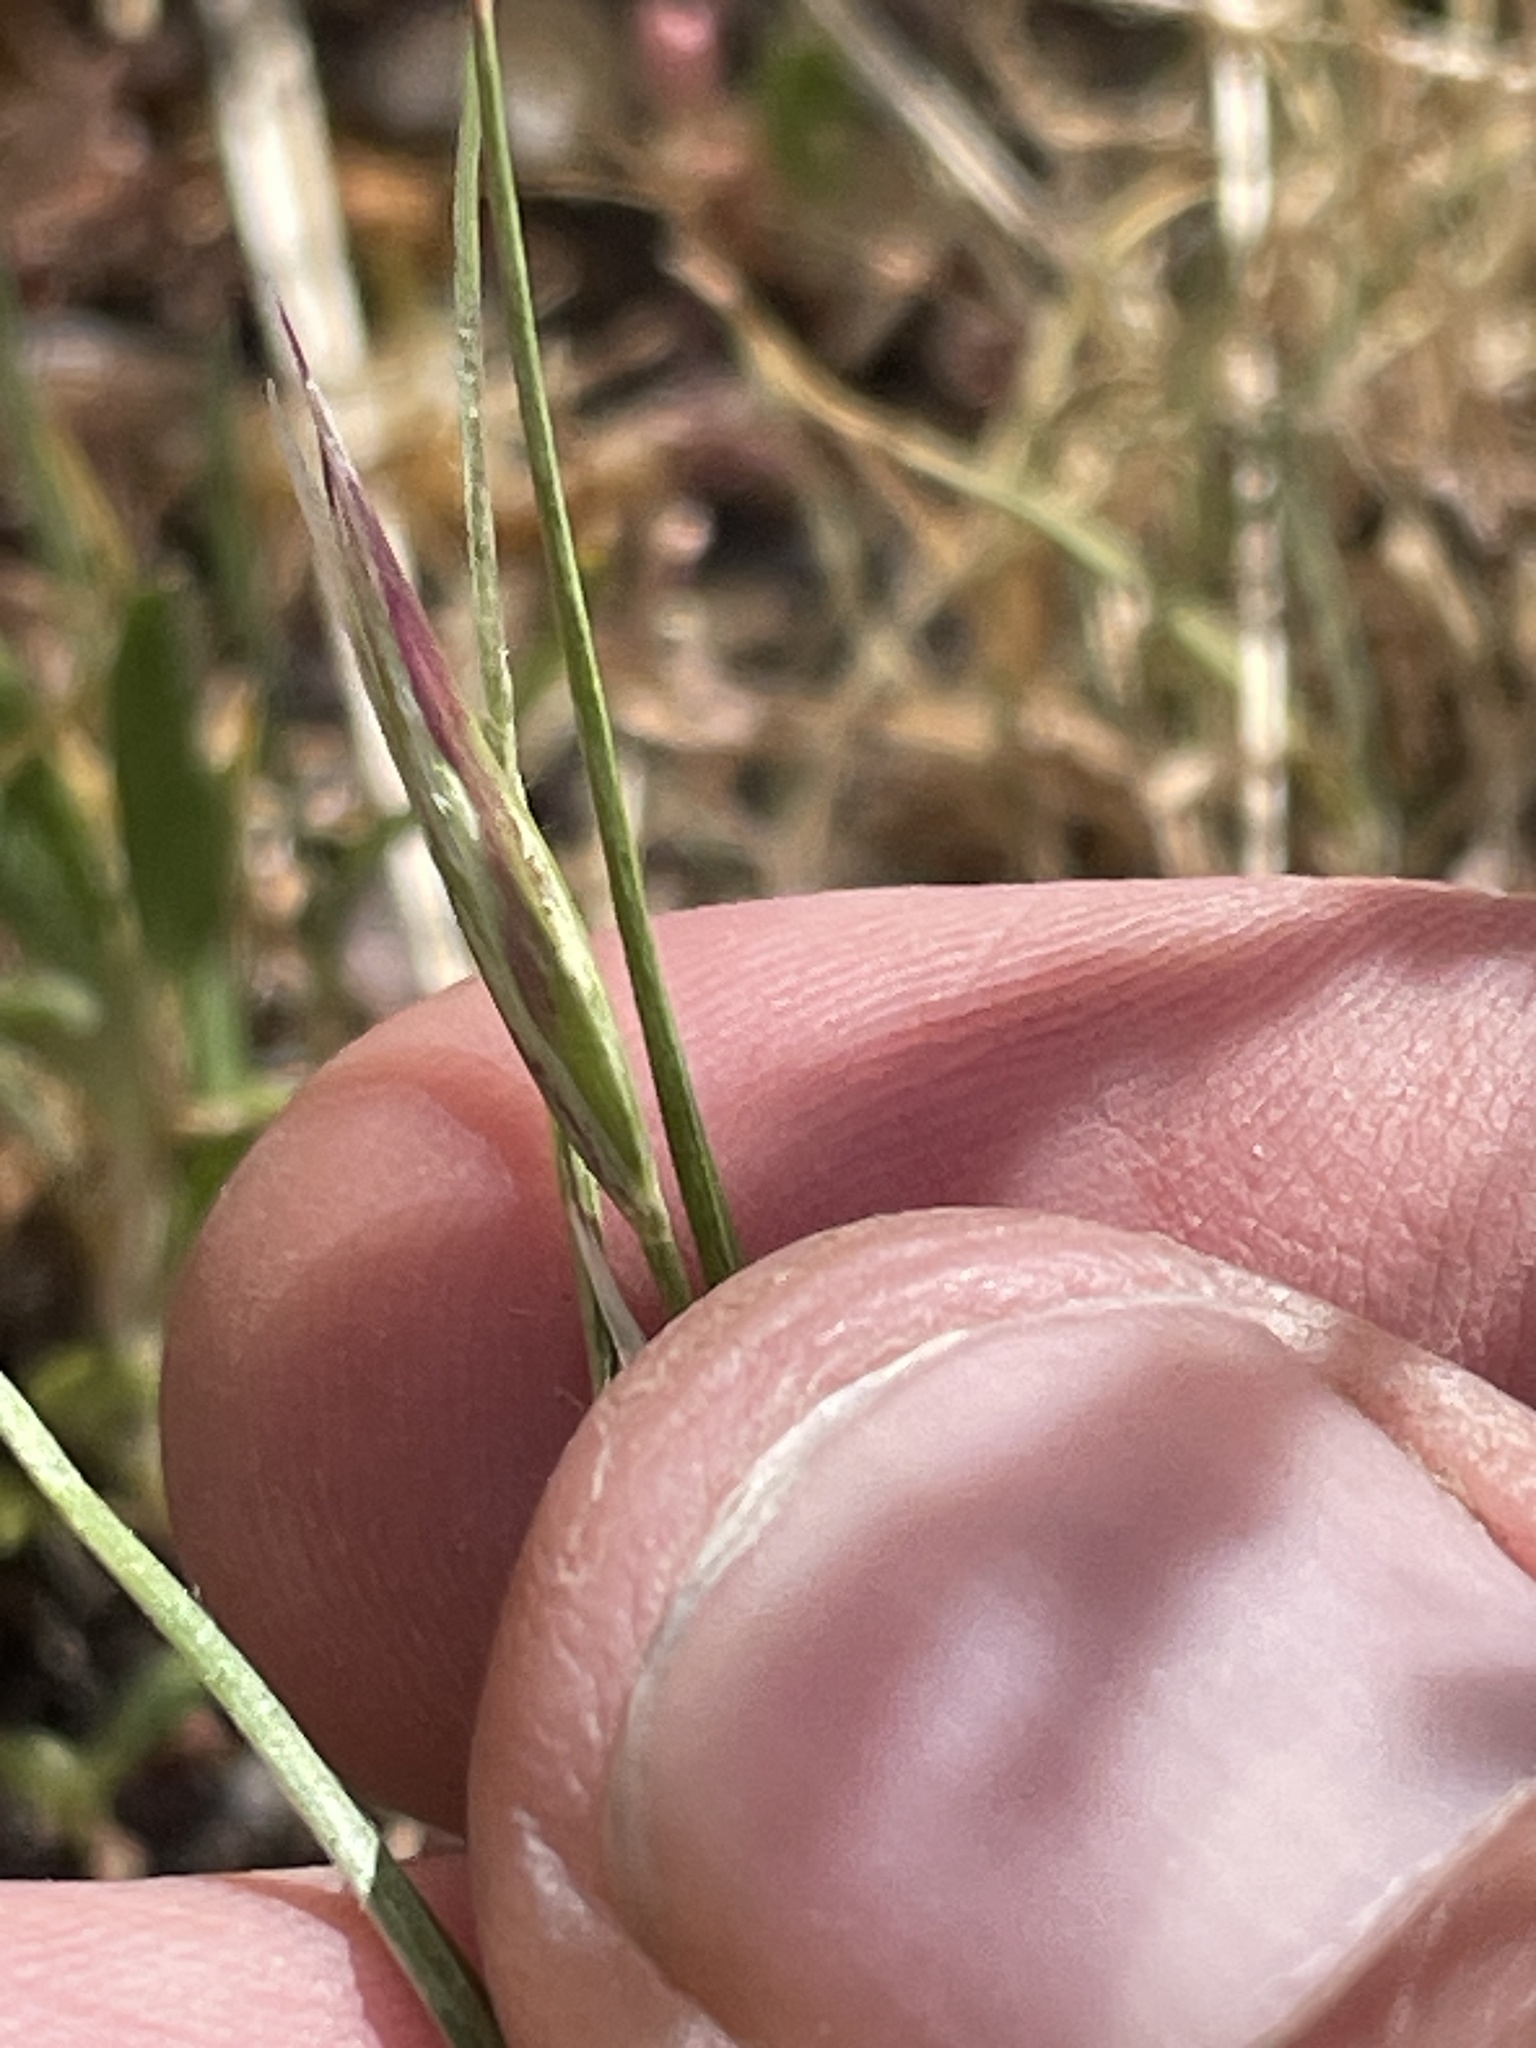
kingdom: Plantae
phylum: Tracheophyta
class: Liliopsida
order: Poales
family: Poaceae
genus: Danthonia
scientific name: Danthonia unispicata
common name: Few-flowered oatgrass
